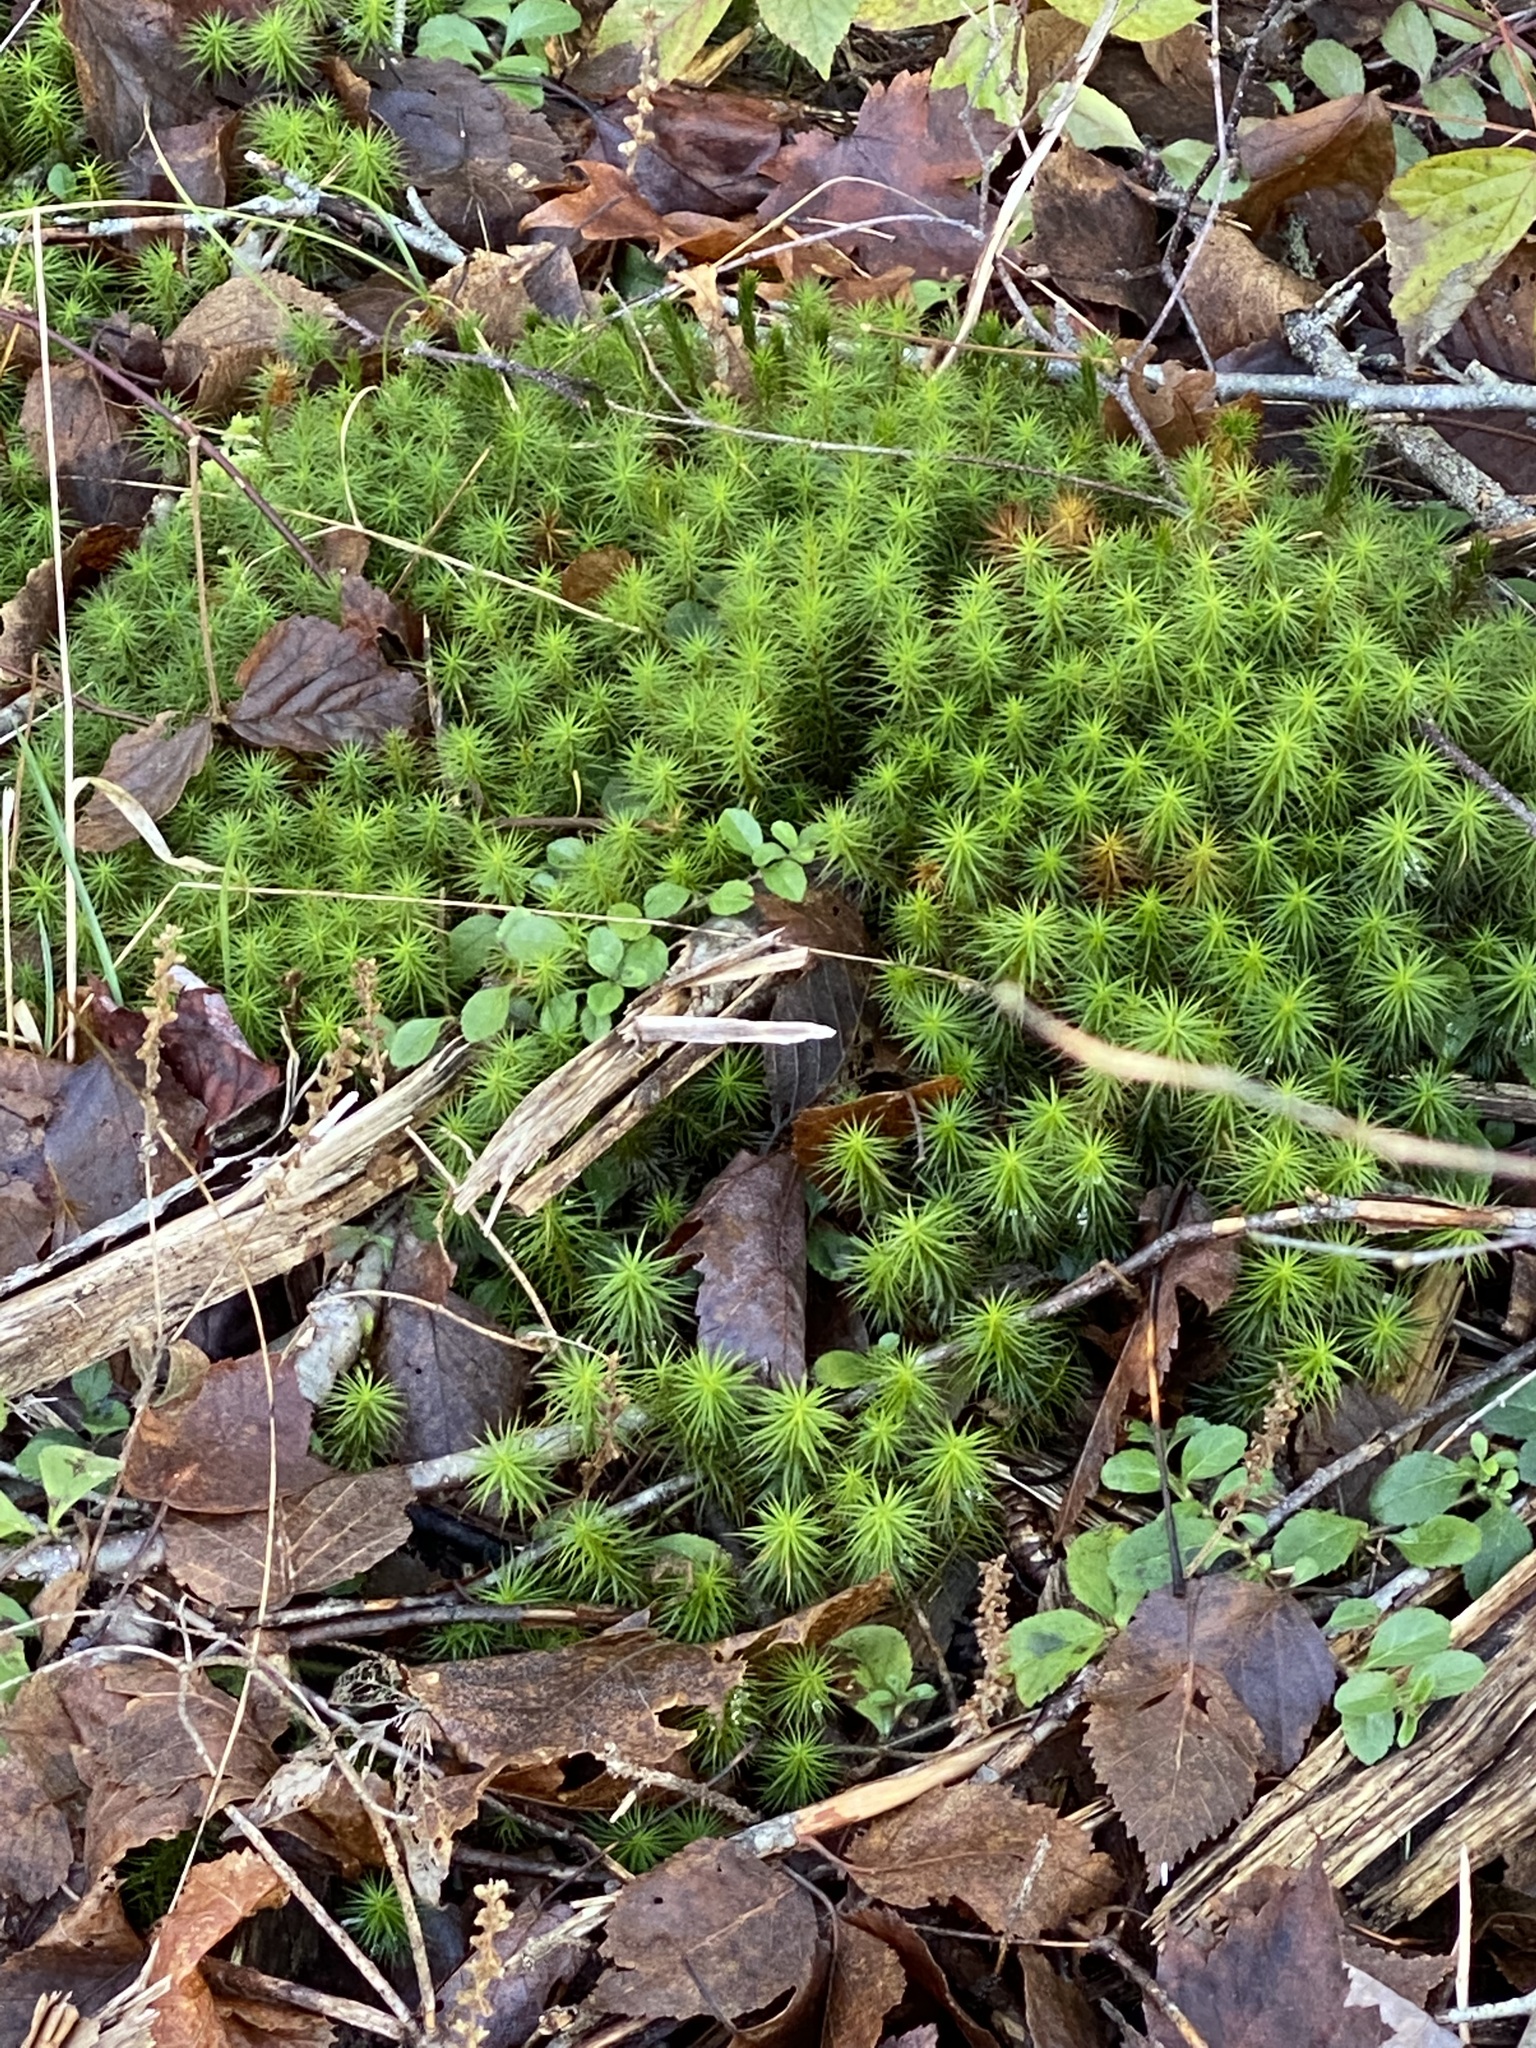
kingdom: Plantae
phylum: Bryophyta
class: Polytrichopsida
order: Polytrichales
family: Polytrichaceae
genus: Polytrichum
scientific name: Polytrichum commune
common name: Common haircap
